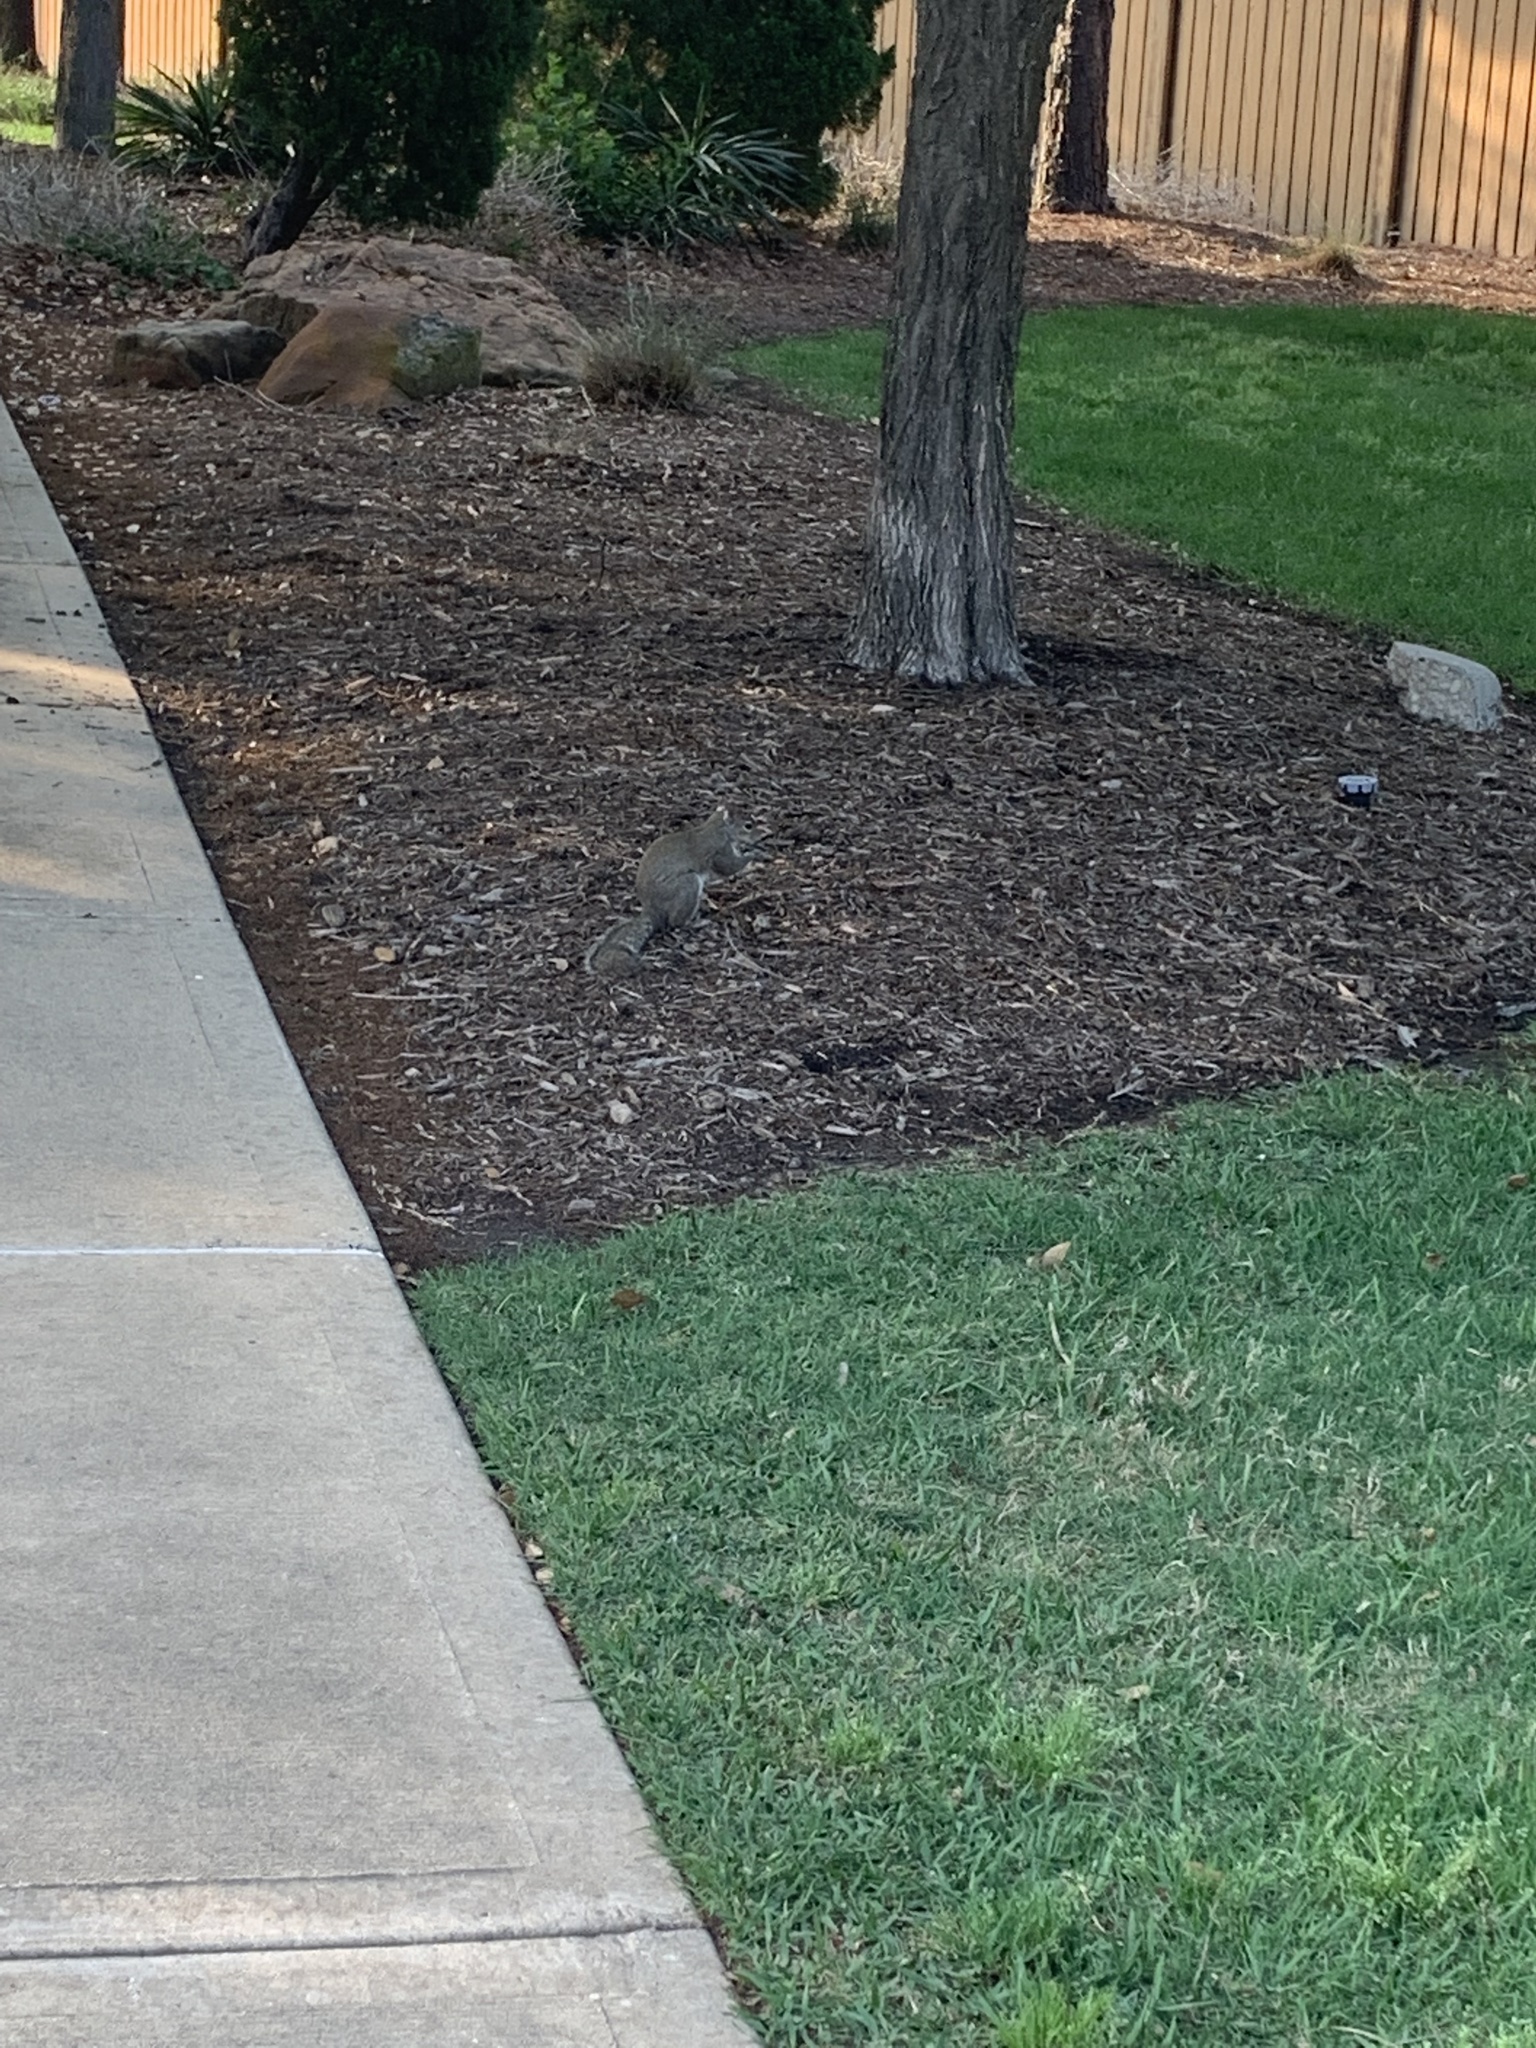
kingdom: Animalia
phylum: Chordata
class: Mammalia
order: Rodentia
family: Sciuridae
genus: Sciurus
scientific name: Sciurus carolinensis
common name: Eastern gray squirrel
